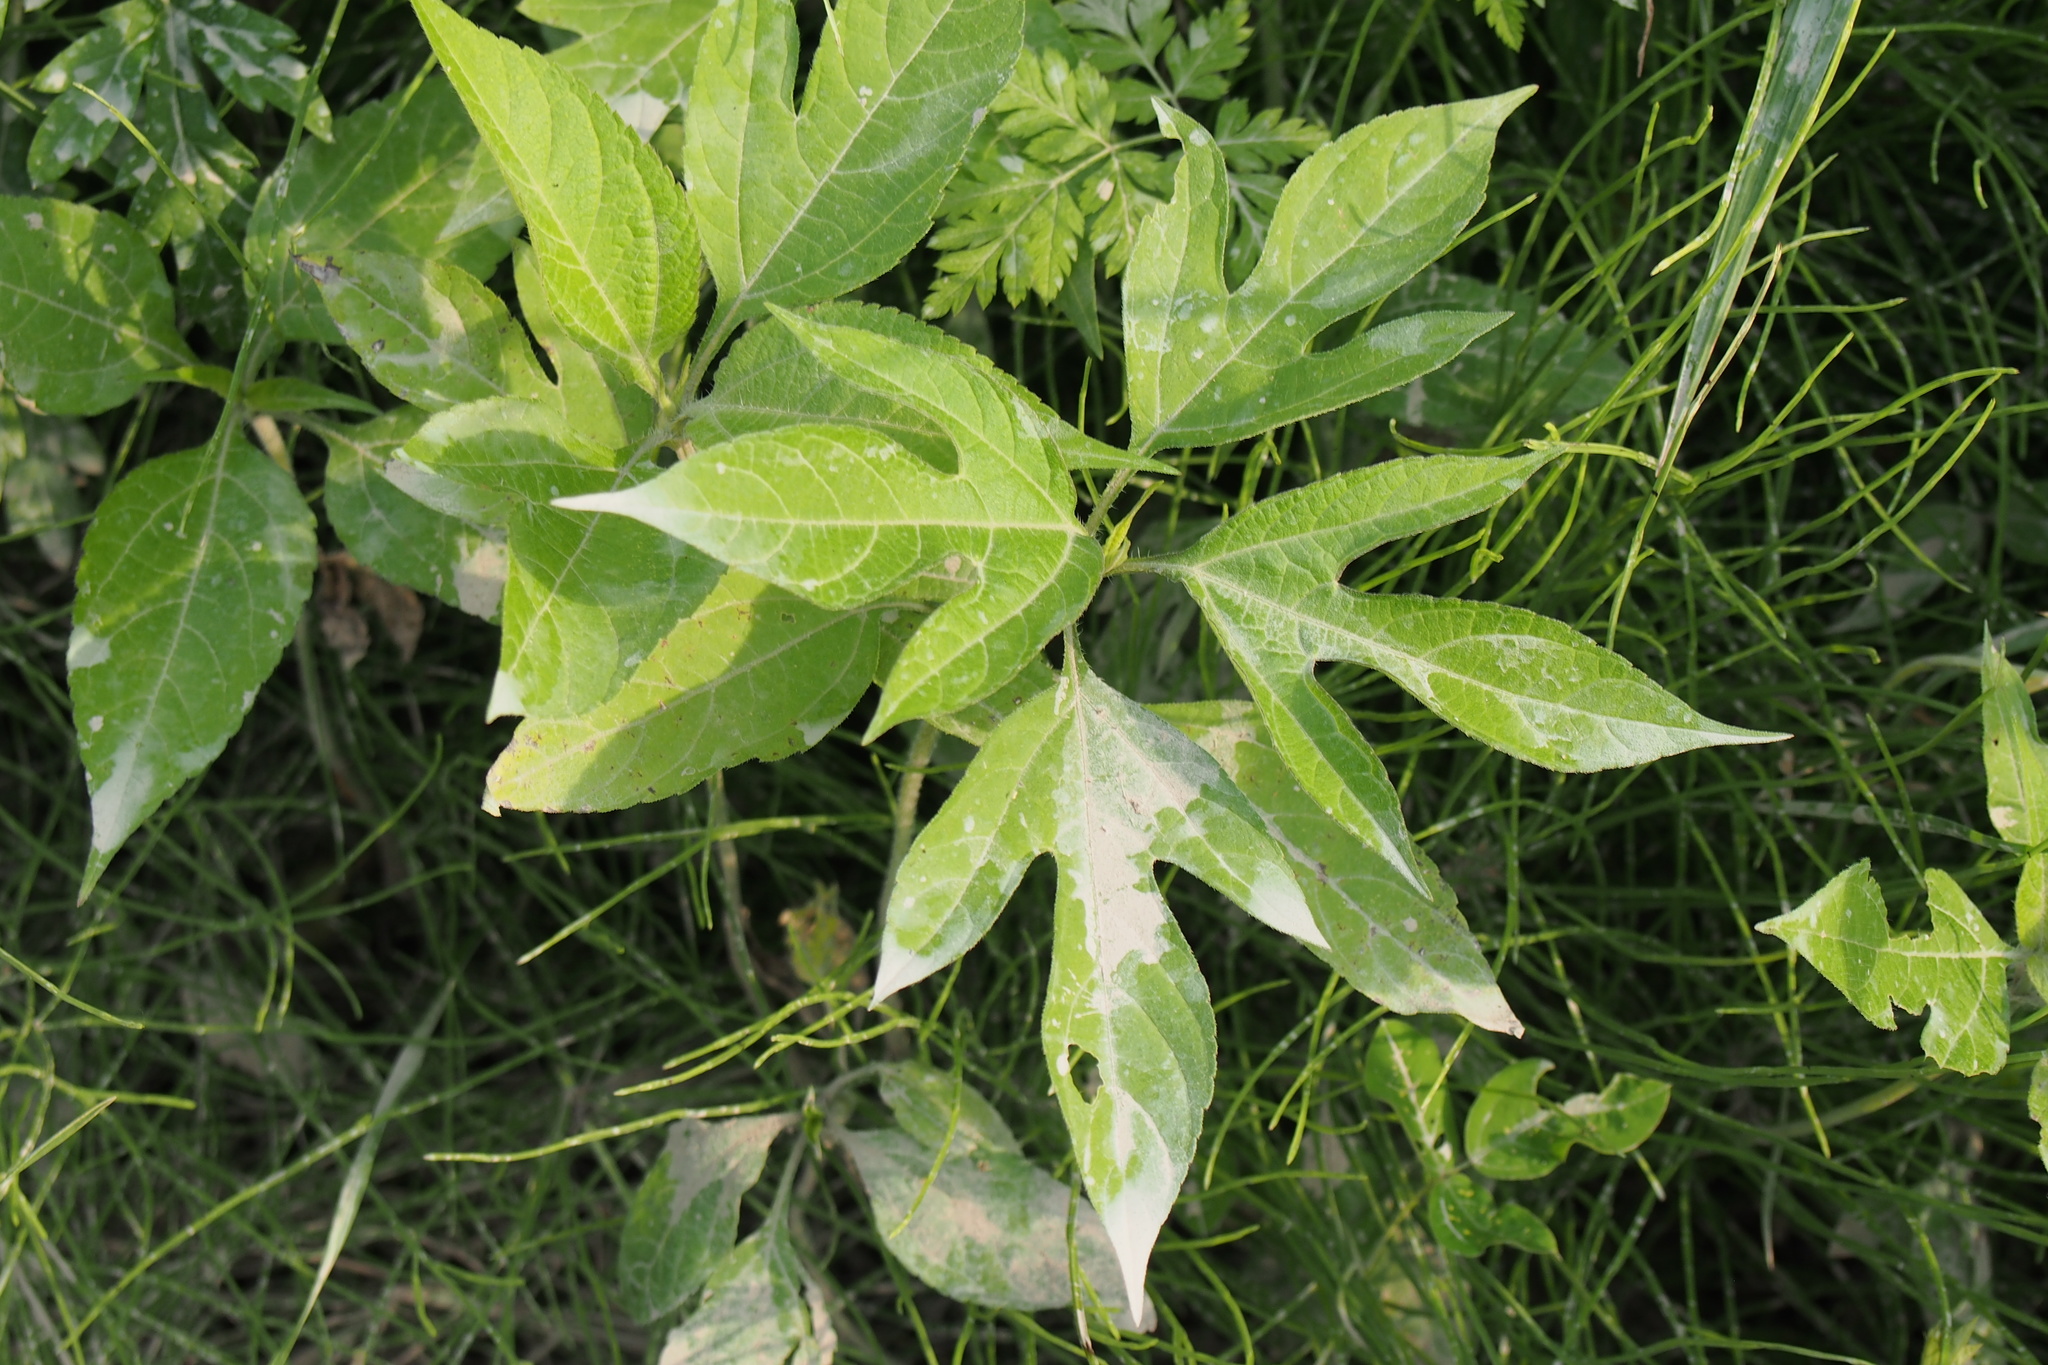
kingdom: Plantae
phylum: Tracheophyta
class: Magnoliopsida
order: Asterales
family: Asteraceae
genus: Ambrosia
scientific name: Ambrosia trifida
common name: Giant ragweed
